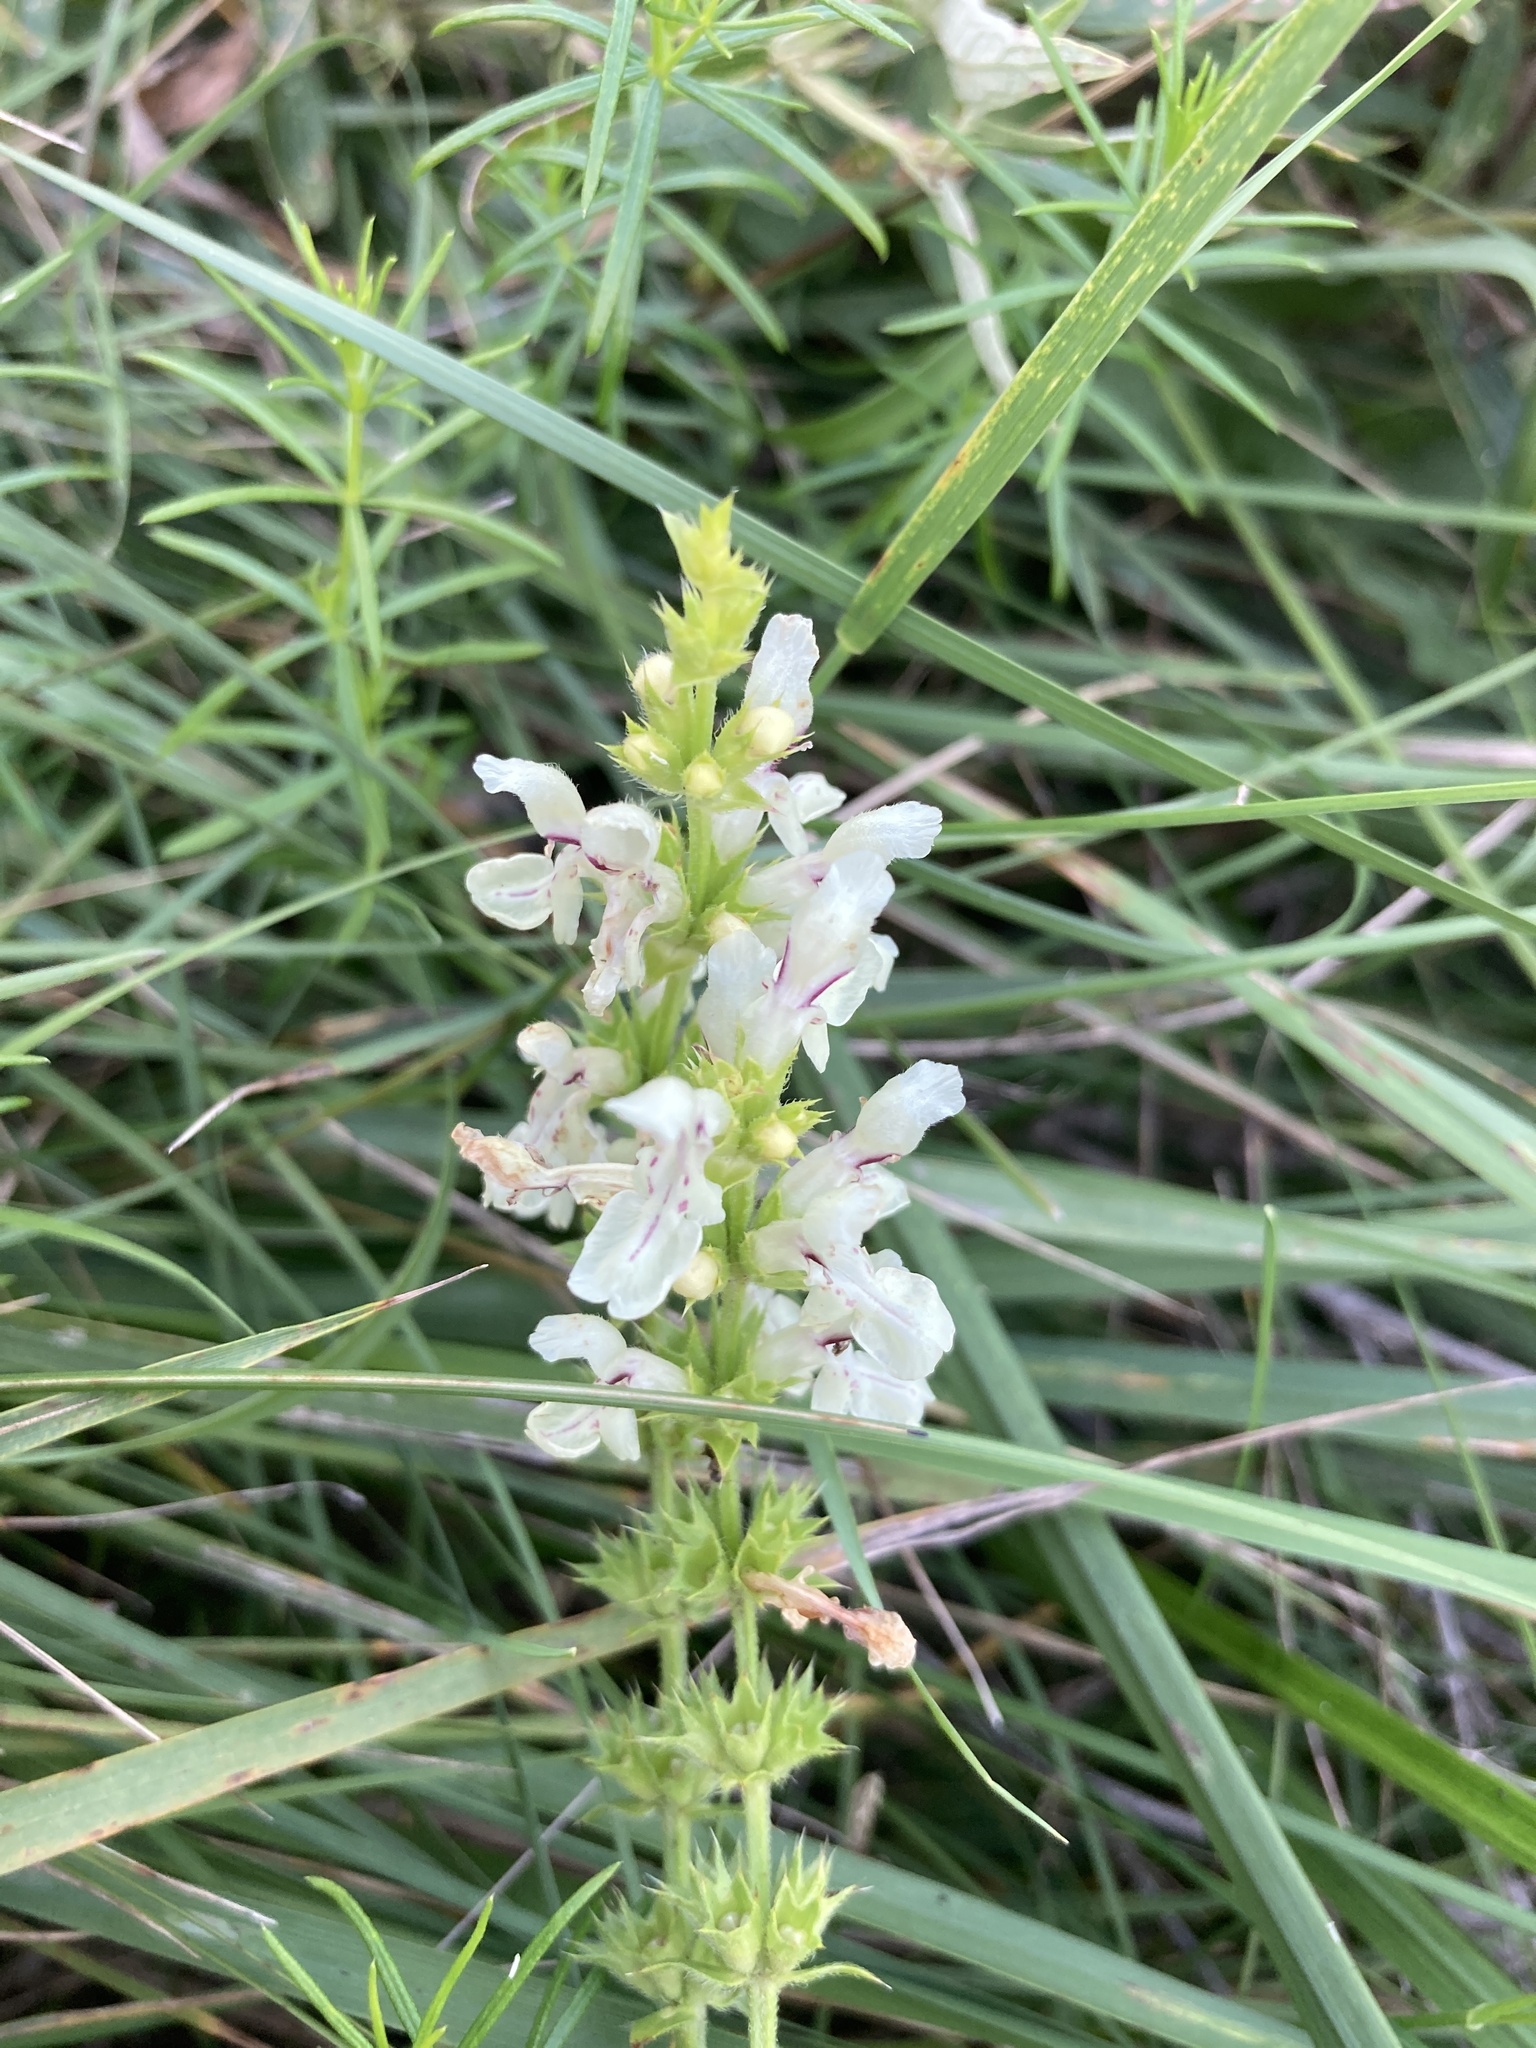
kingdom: Plantae
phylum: Tracheophyta
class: Magnoliopsida
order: Lamiales
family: Lamiaceae
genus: Stachys
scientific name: Stachys recta
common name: Perennial yellow-woundwort
